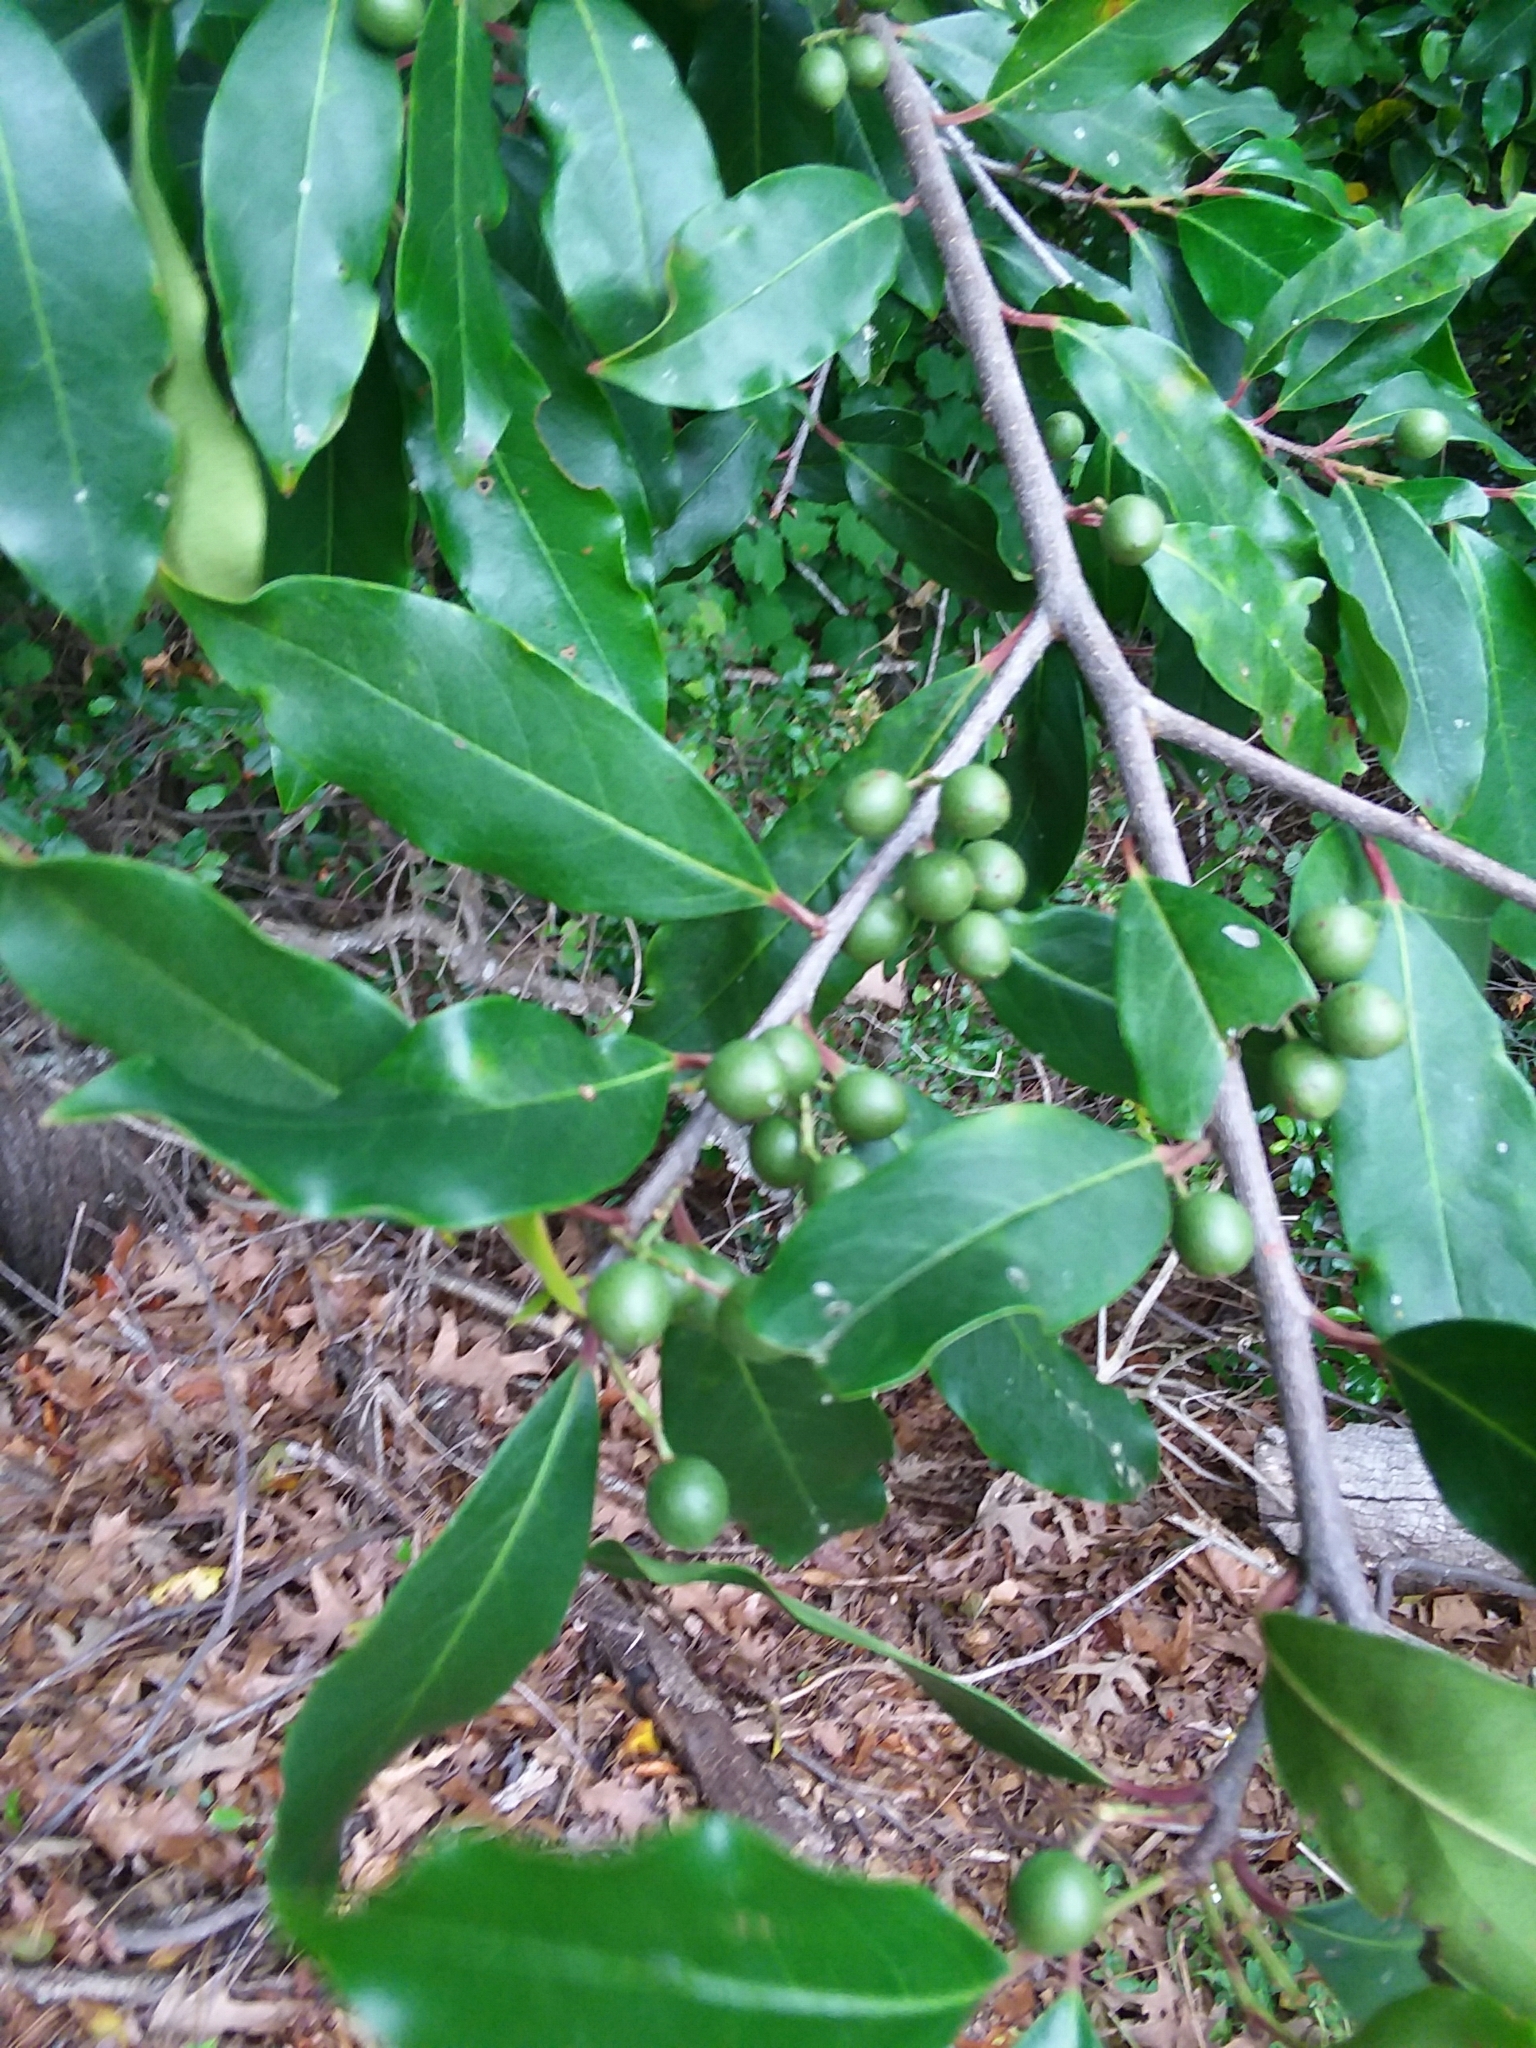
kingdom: Plantae
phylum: Tracheophyta
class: Magnoliopsida
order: Rosales
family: Rosaceae
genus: Prunus
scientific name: Prunus caroliniana
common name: Carolina laurel cherry
